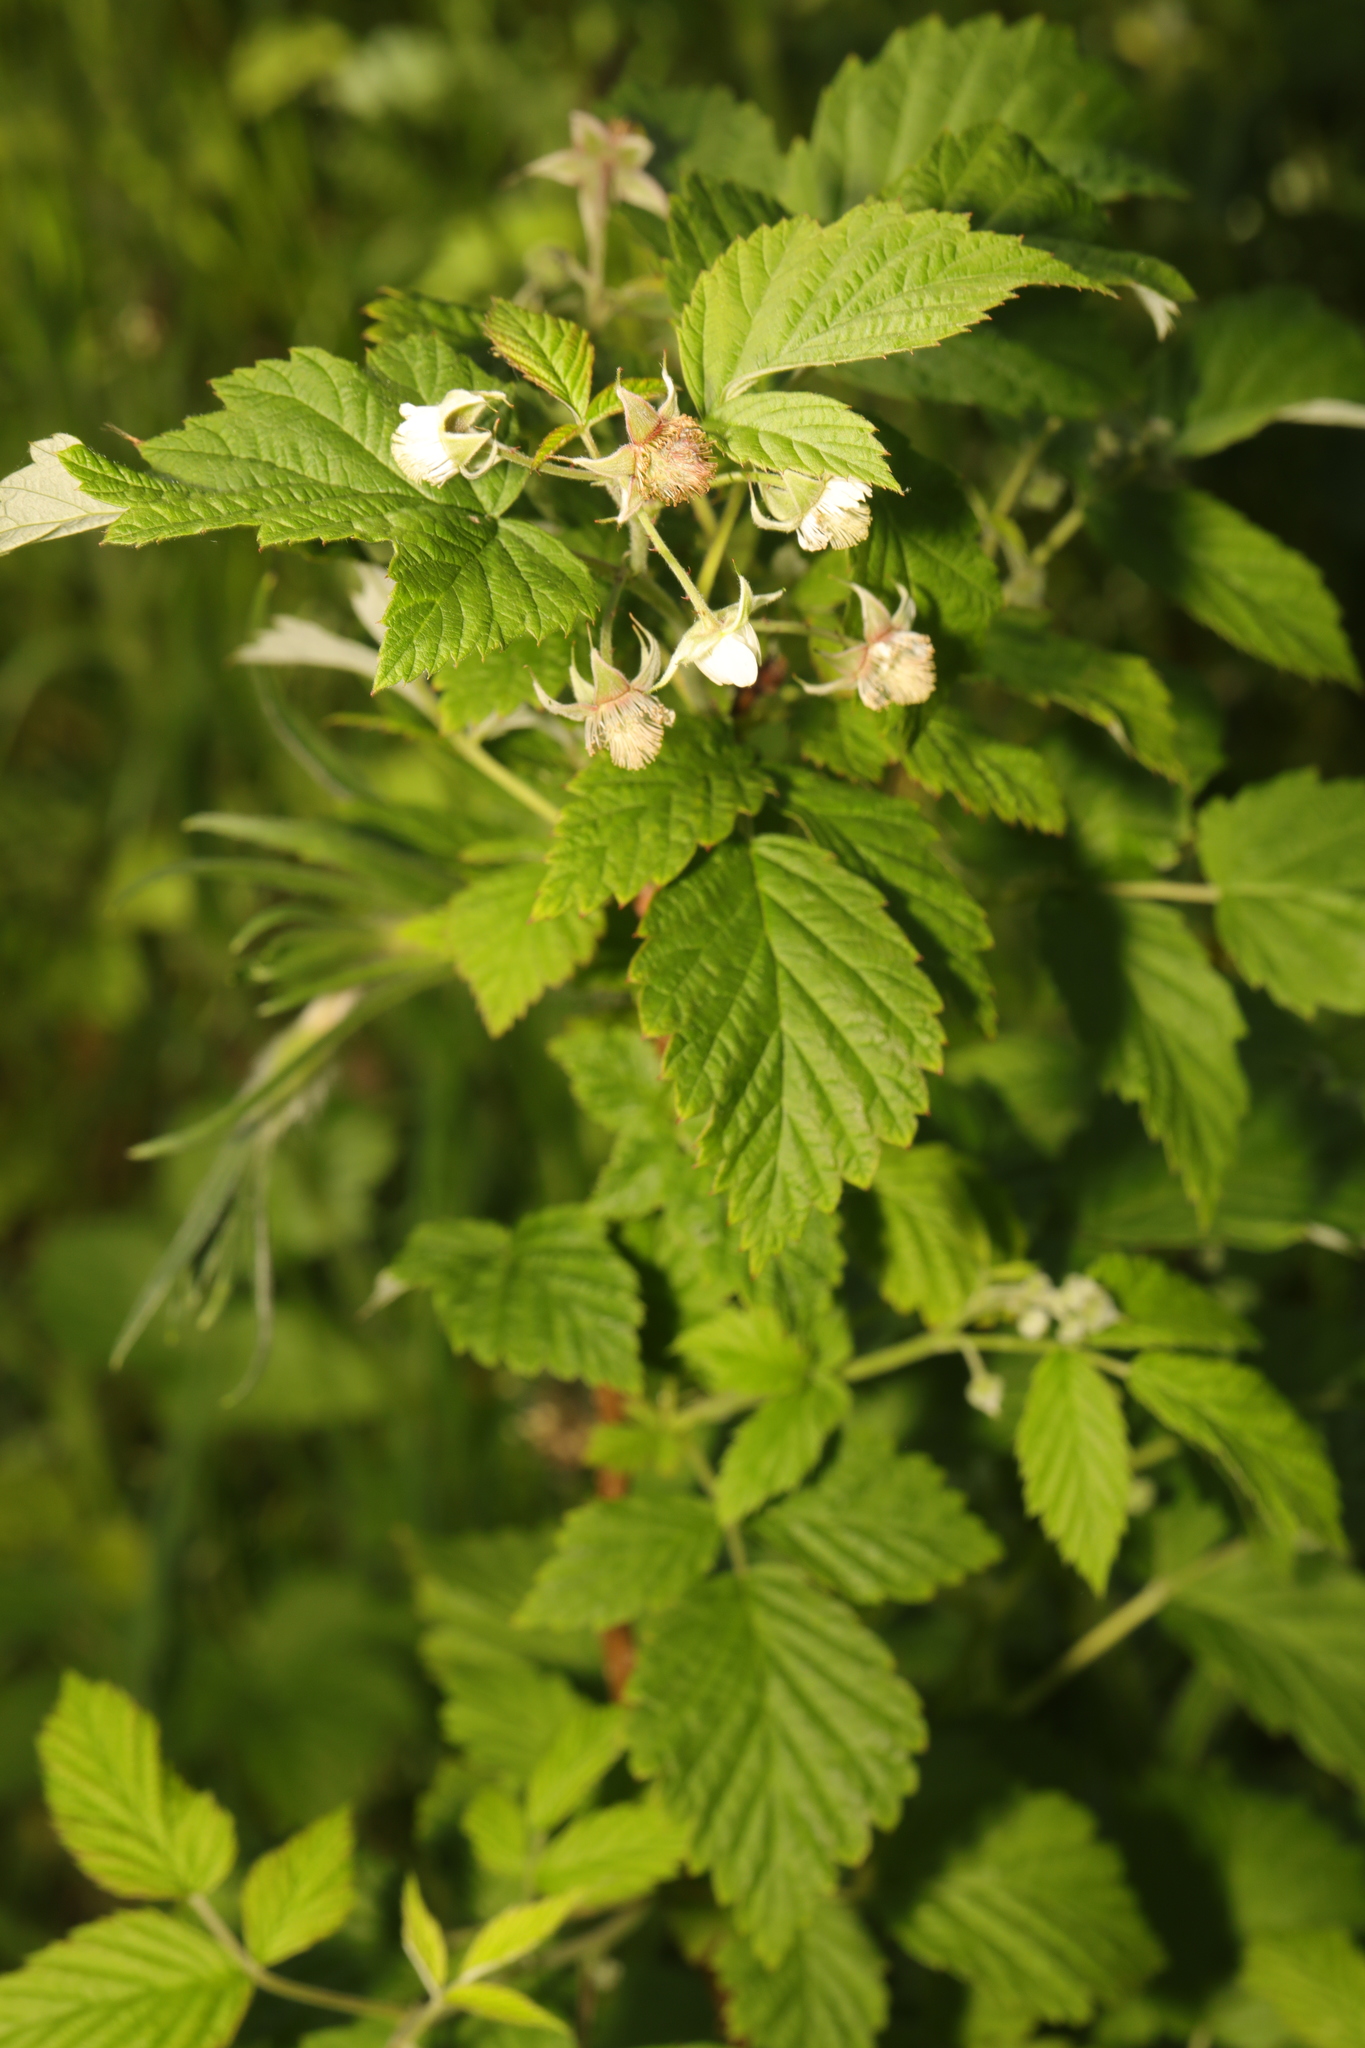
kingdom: Plantae
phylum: Tracheophyta
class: Magnoliopsida
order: Rosales
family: Rosaceae
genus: Rubus
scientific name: Rubus idaeus
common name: Raspberry
